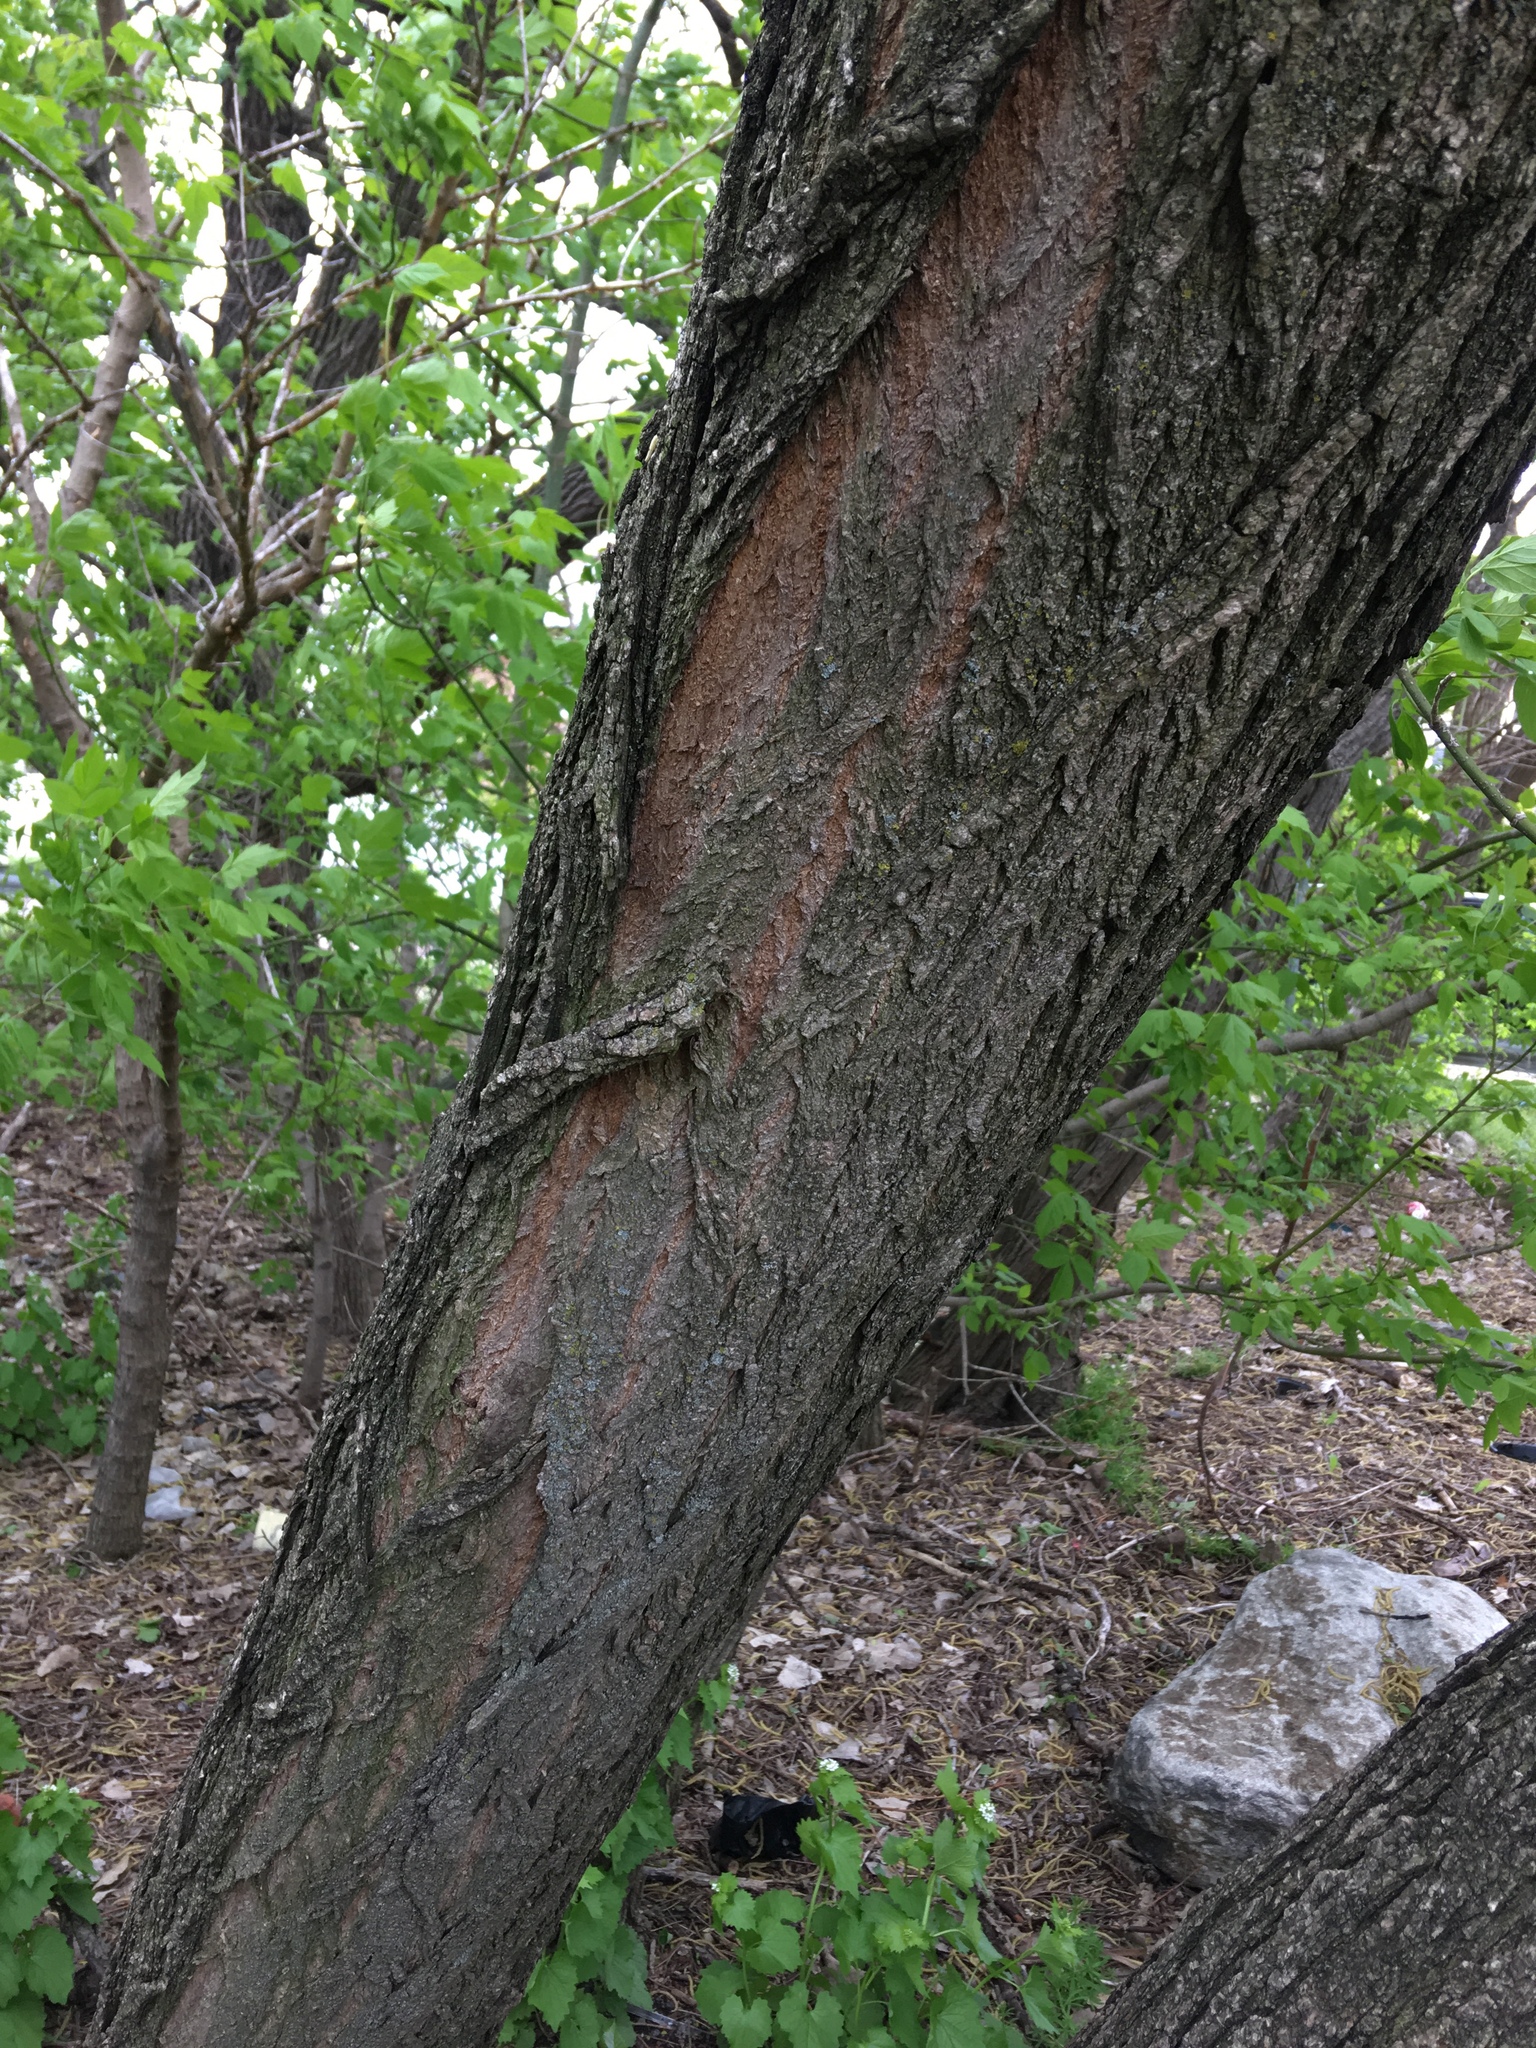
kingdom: Plantae
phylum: Tracheophyta
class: Magnoliopsida
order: Fabales
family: Fabaceae
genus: Robinia
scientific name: Robinia pseudoacacia
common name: Black locust
